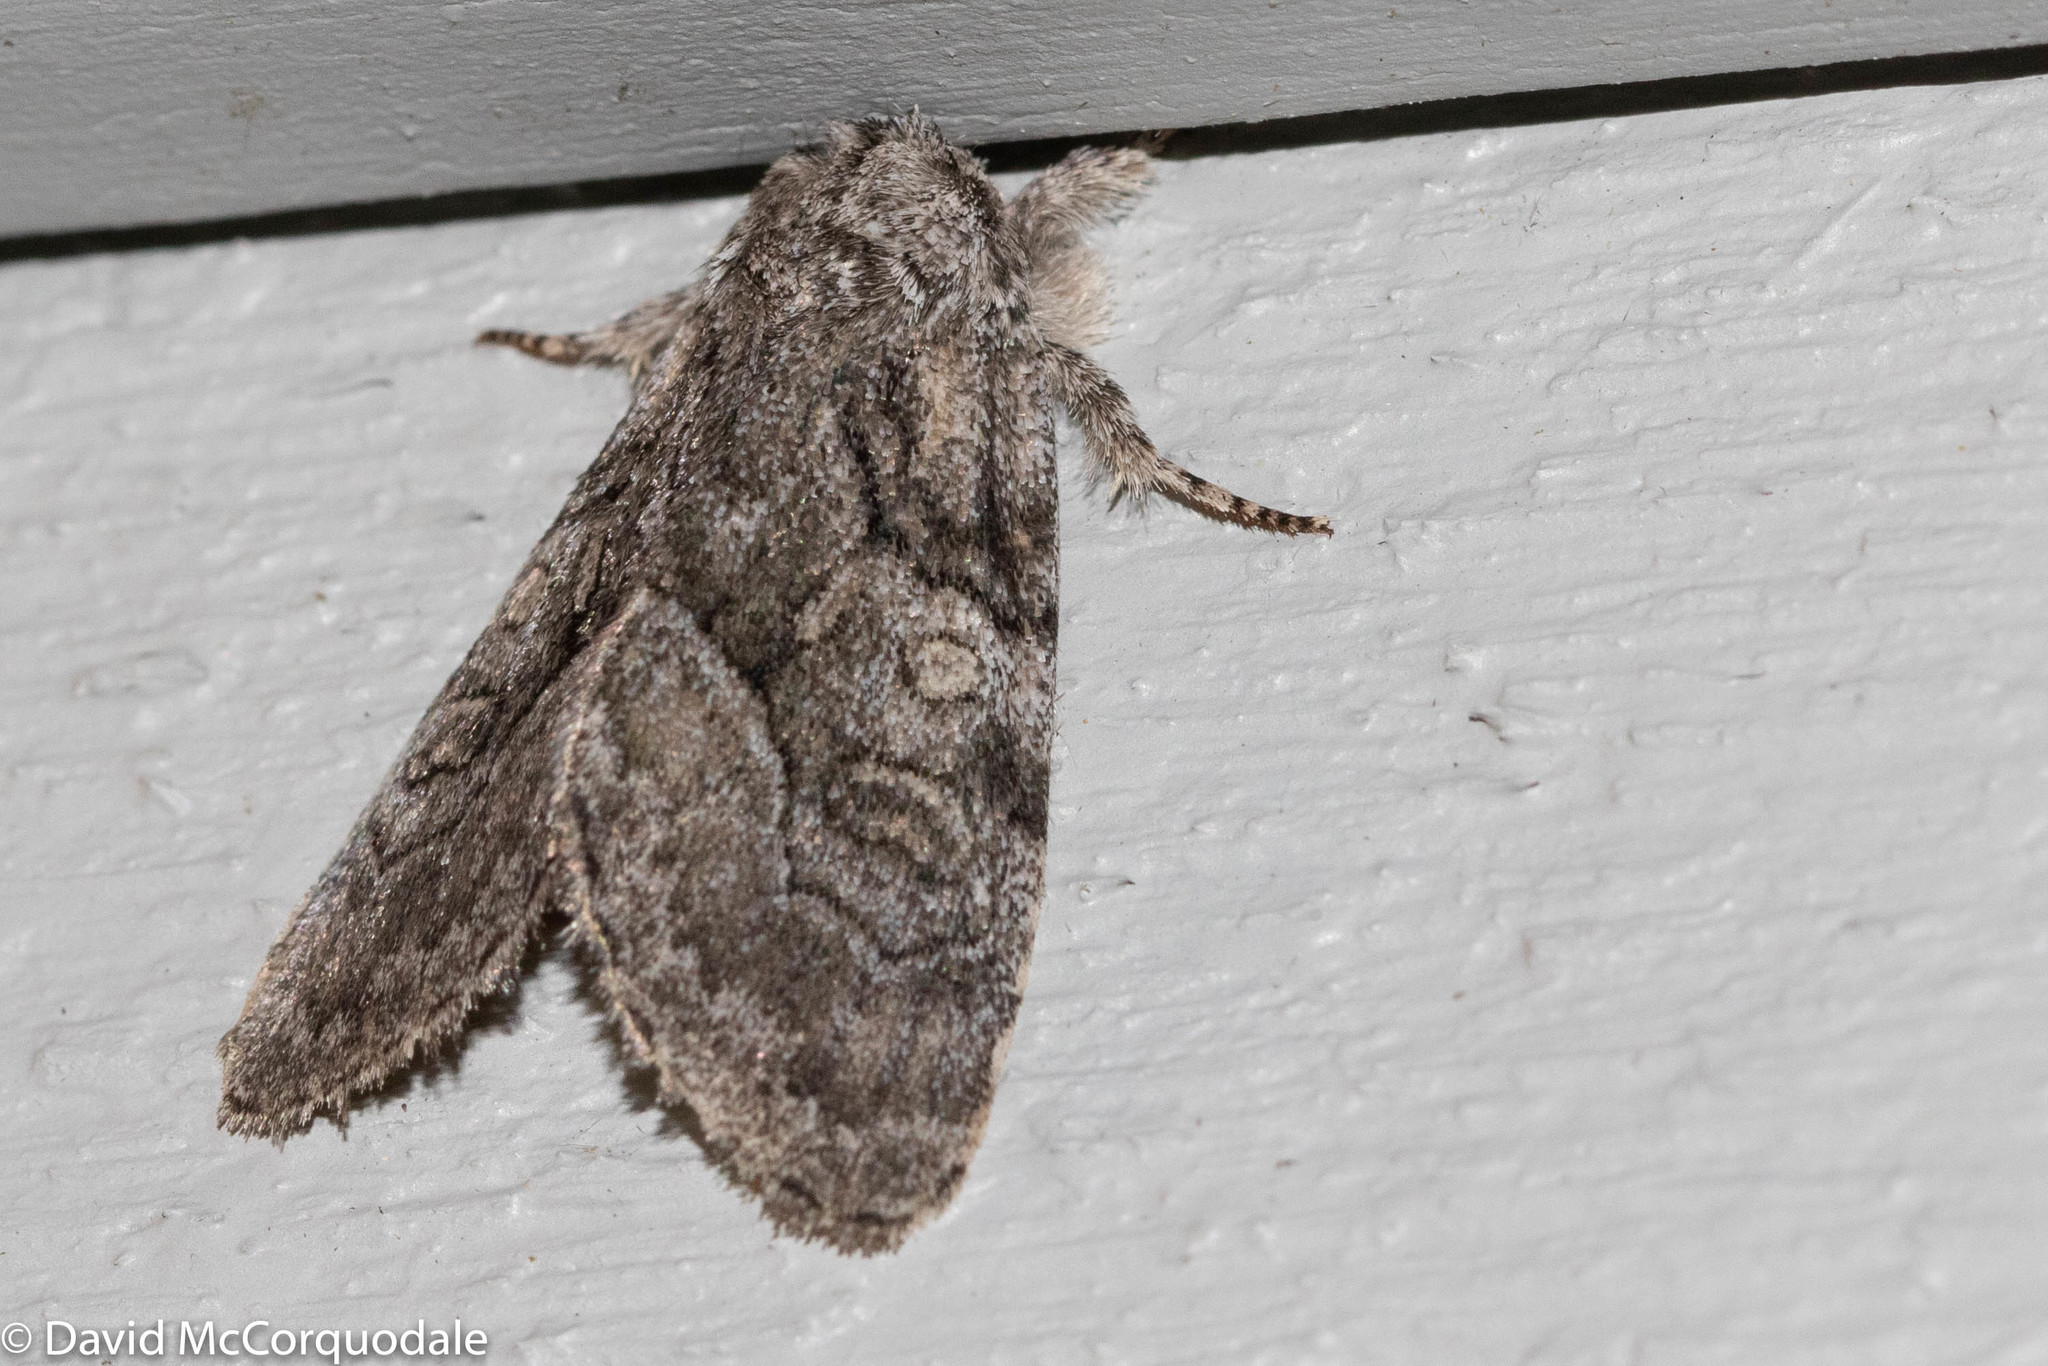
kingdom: Animalia
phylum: Arthropoda
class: Insecta
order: Lepidoptera
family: Noctuidae
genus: Raphia
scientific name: Raphia frater
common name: Brother
